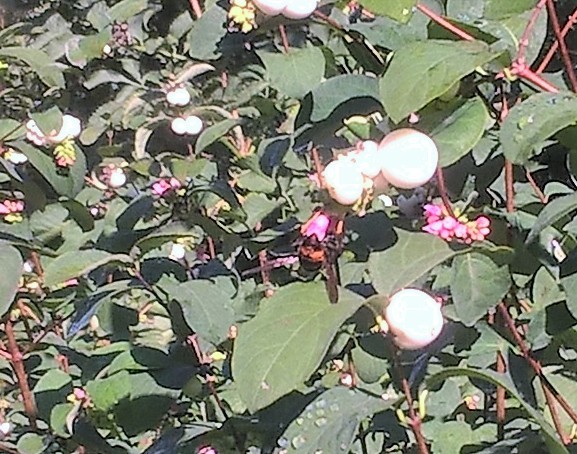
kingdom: Animalia
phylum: Arthropoda
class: Insecta
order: Hymenoptera
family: Vespidae
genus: Vespa
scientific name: Vespa velutina
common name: Asian hornet
